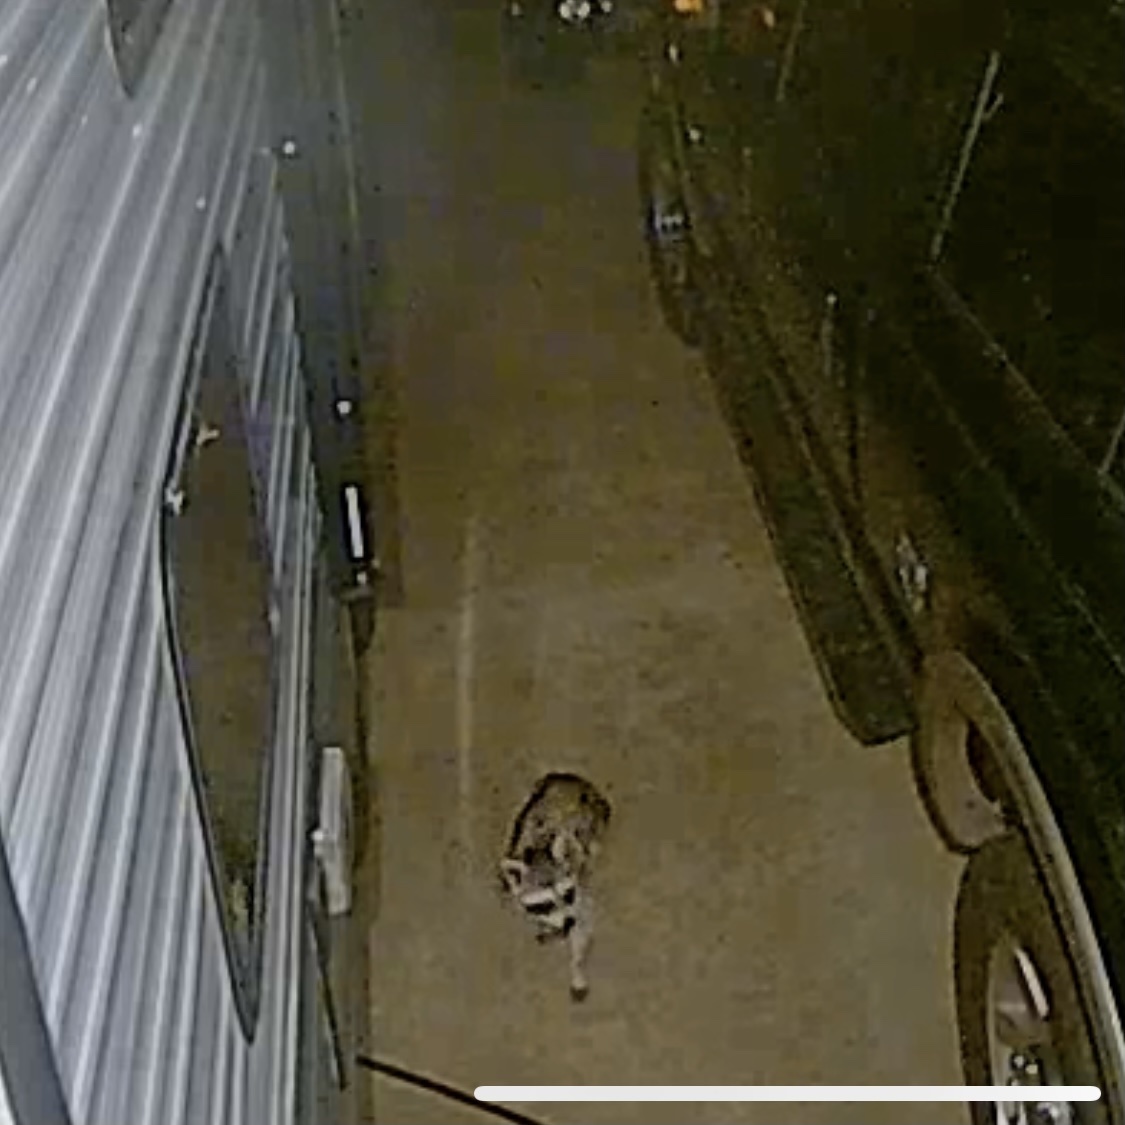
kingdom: Animalia
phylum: Chordata
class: Mammalia
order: Carnivora
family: Procyonidae
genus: Procyon
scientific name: Procyon lotor
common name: Raccoon
